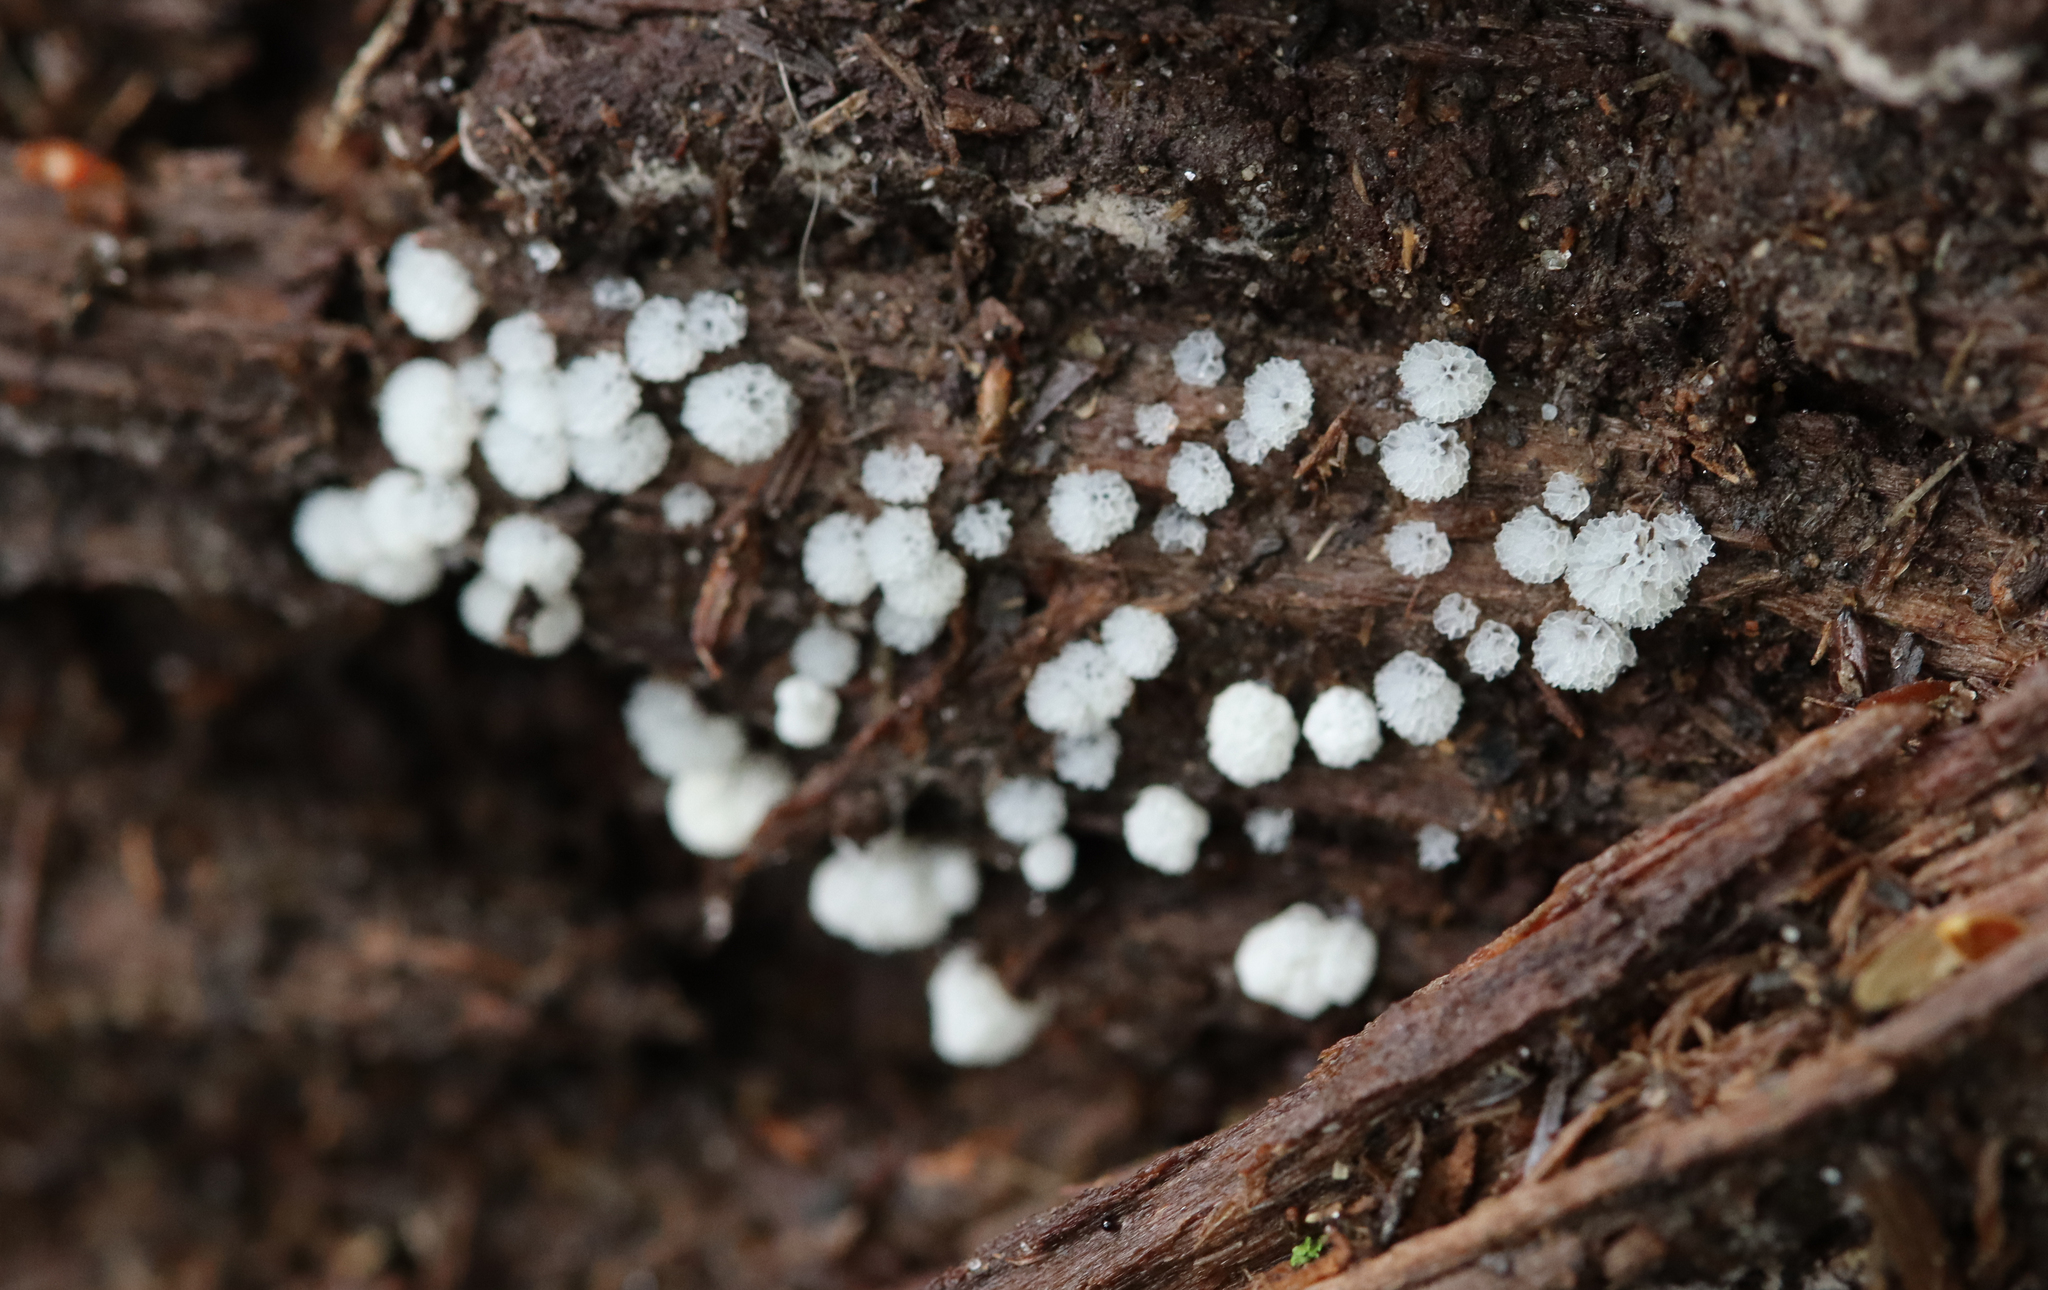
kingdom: Protozoa
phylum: Mycetozoa
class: Protosteliomycetes
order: Ceratiomyxales
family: Ceratiomyxaceae
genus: Ceratiomyxa
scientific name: Ceratiomyxa fruticulosa
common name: Honeycomb coral slime mold
